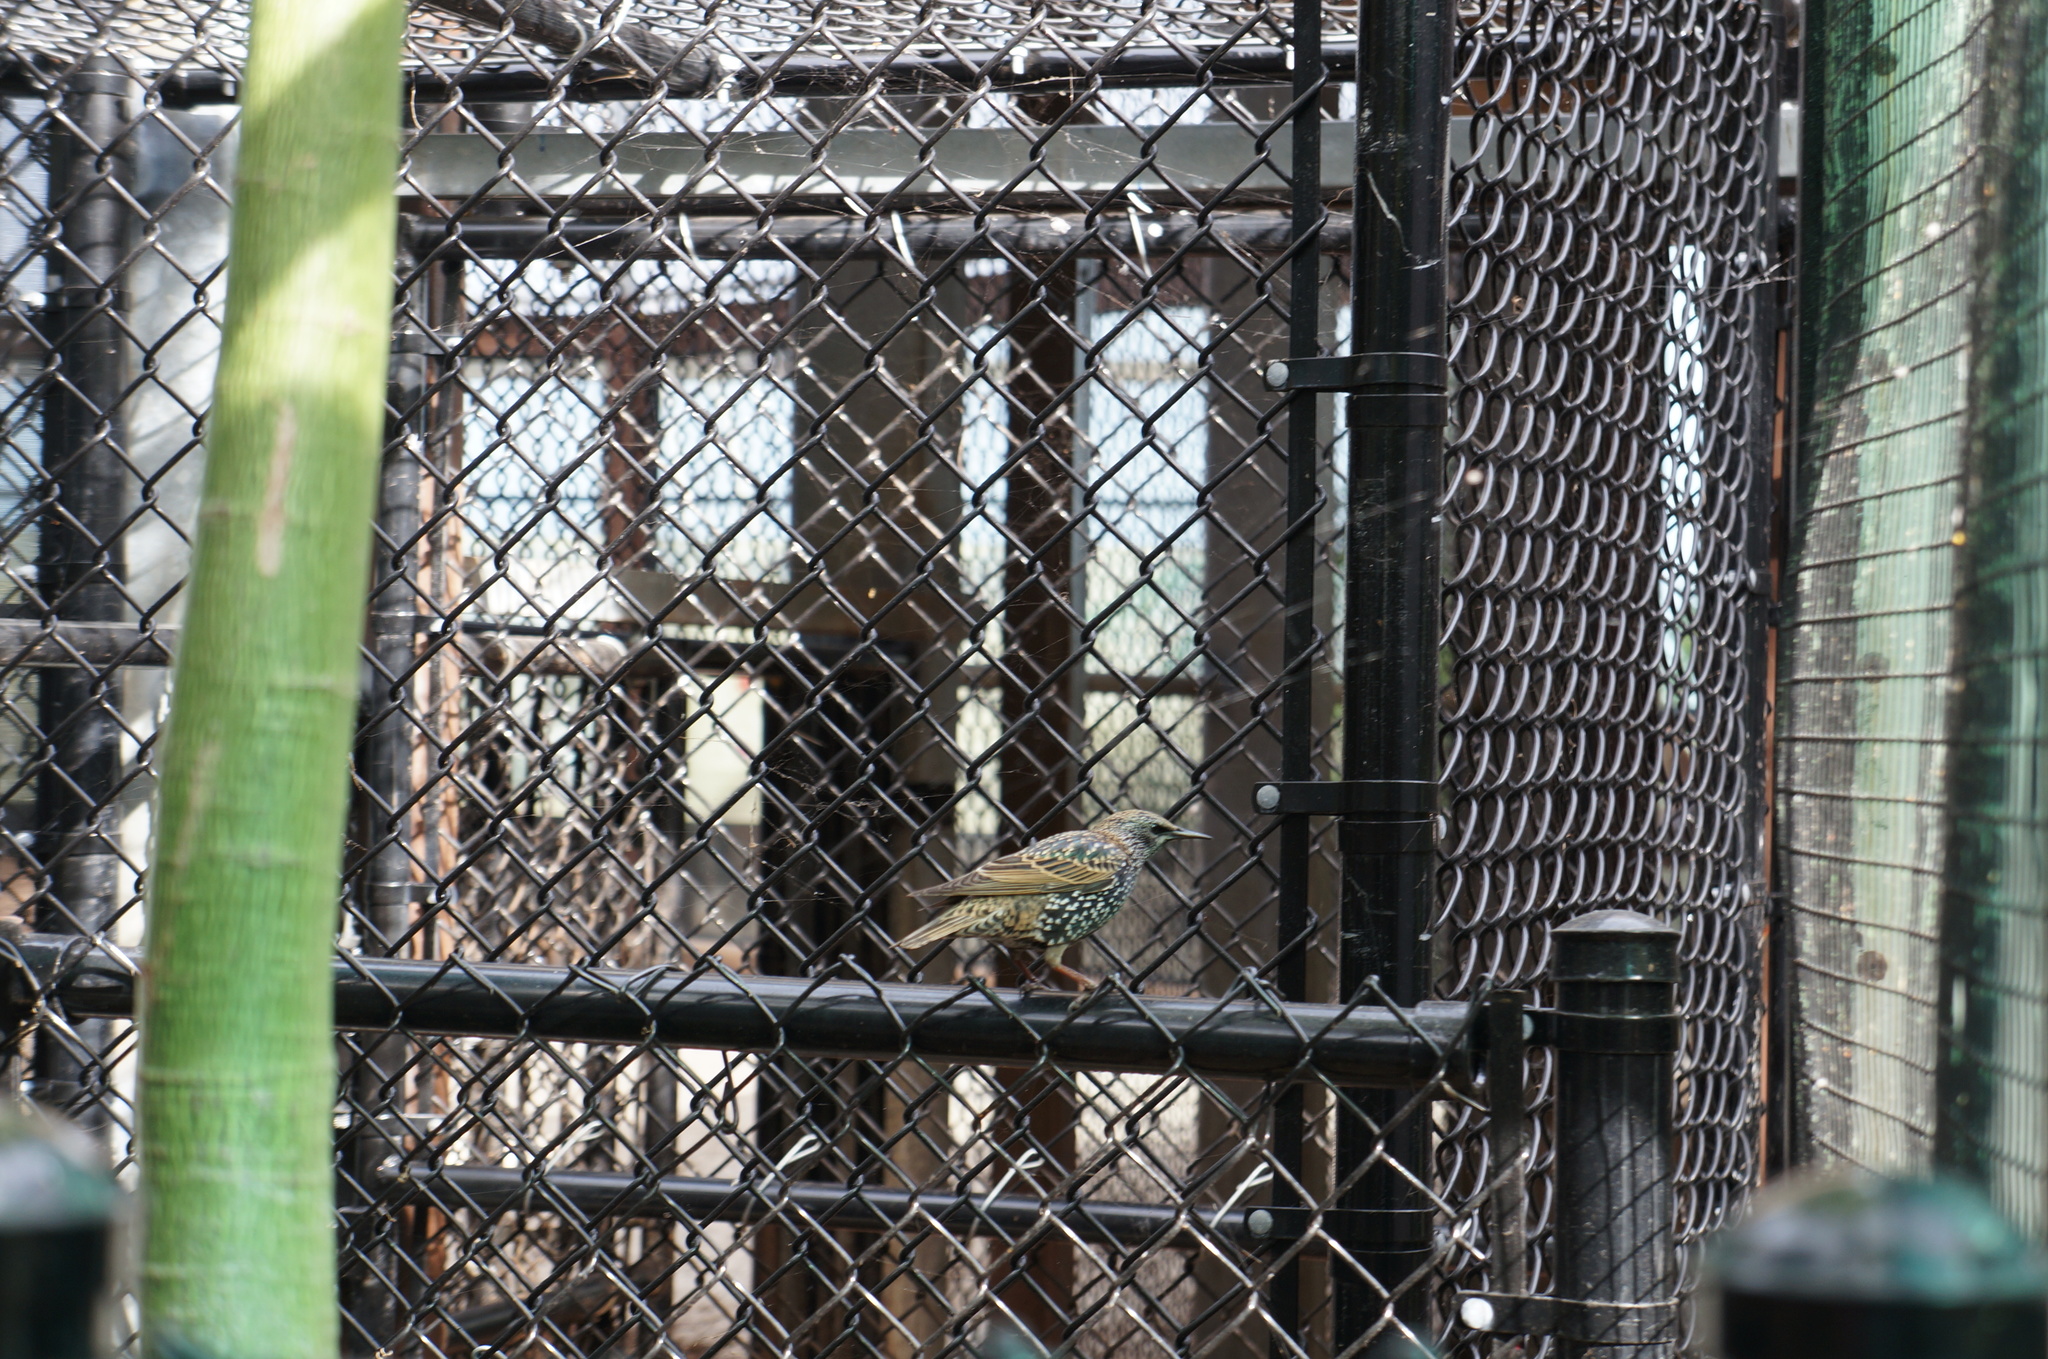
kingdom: Animalia
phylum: Chordata
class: Aves
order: Passeriformes
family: Sturnidae
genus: Sturnus
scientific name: Sturnus vulgaris
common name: Common starling
